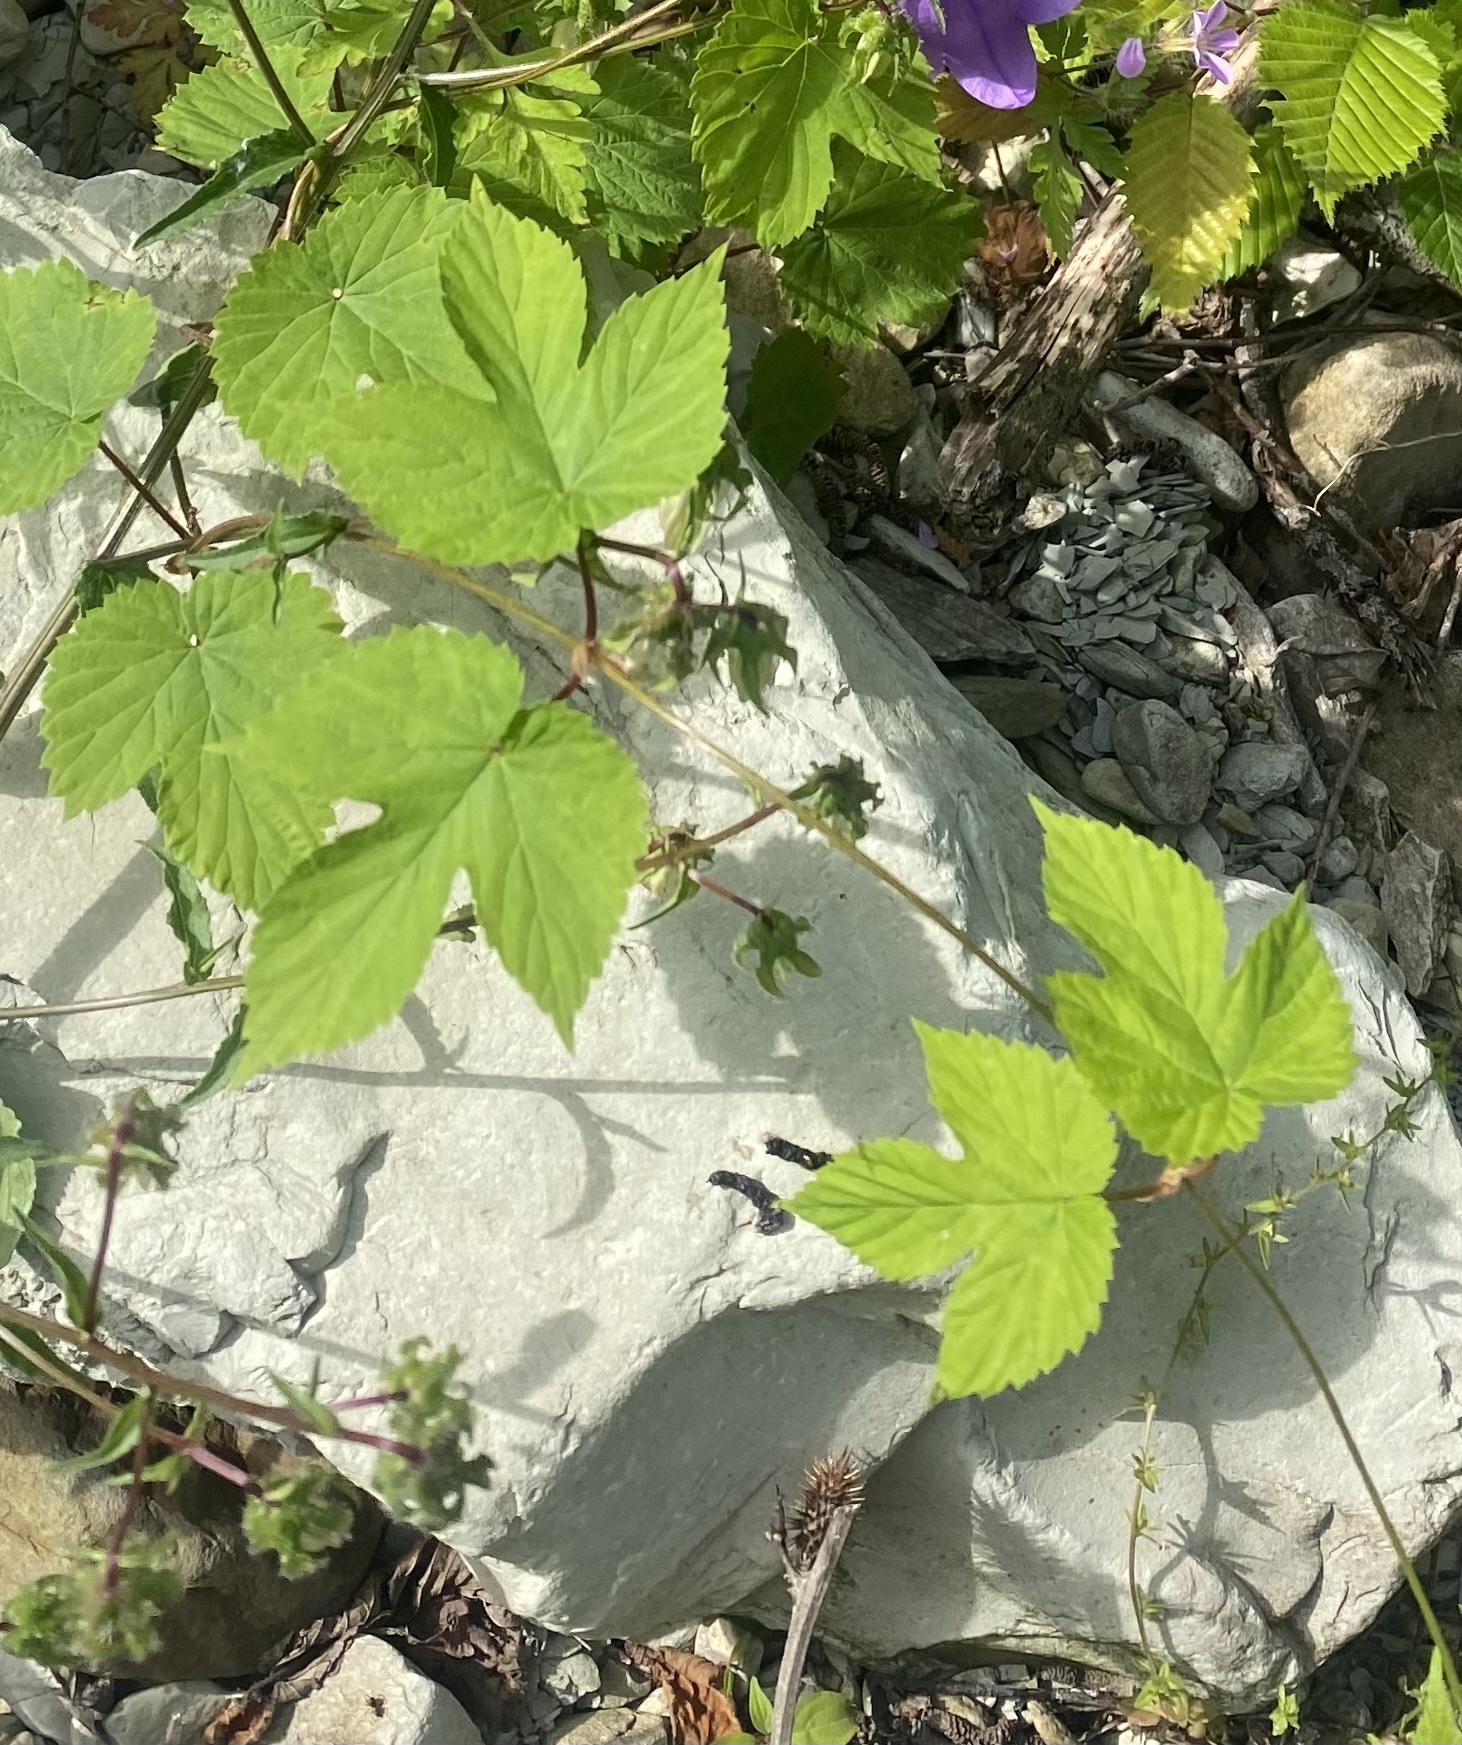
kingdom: Plantae
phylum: Tracheophyta
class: Magnoliopsida
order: Rosales
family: Cannabaceae
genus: Humulus
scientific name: Humulus lupulus
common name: Hop
